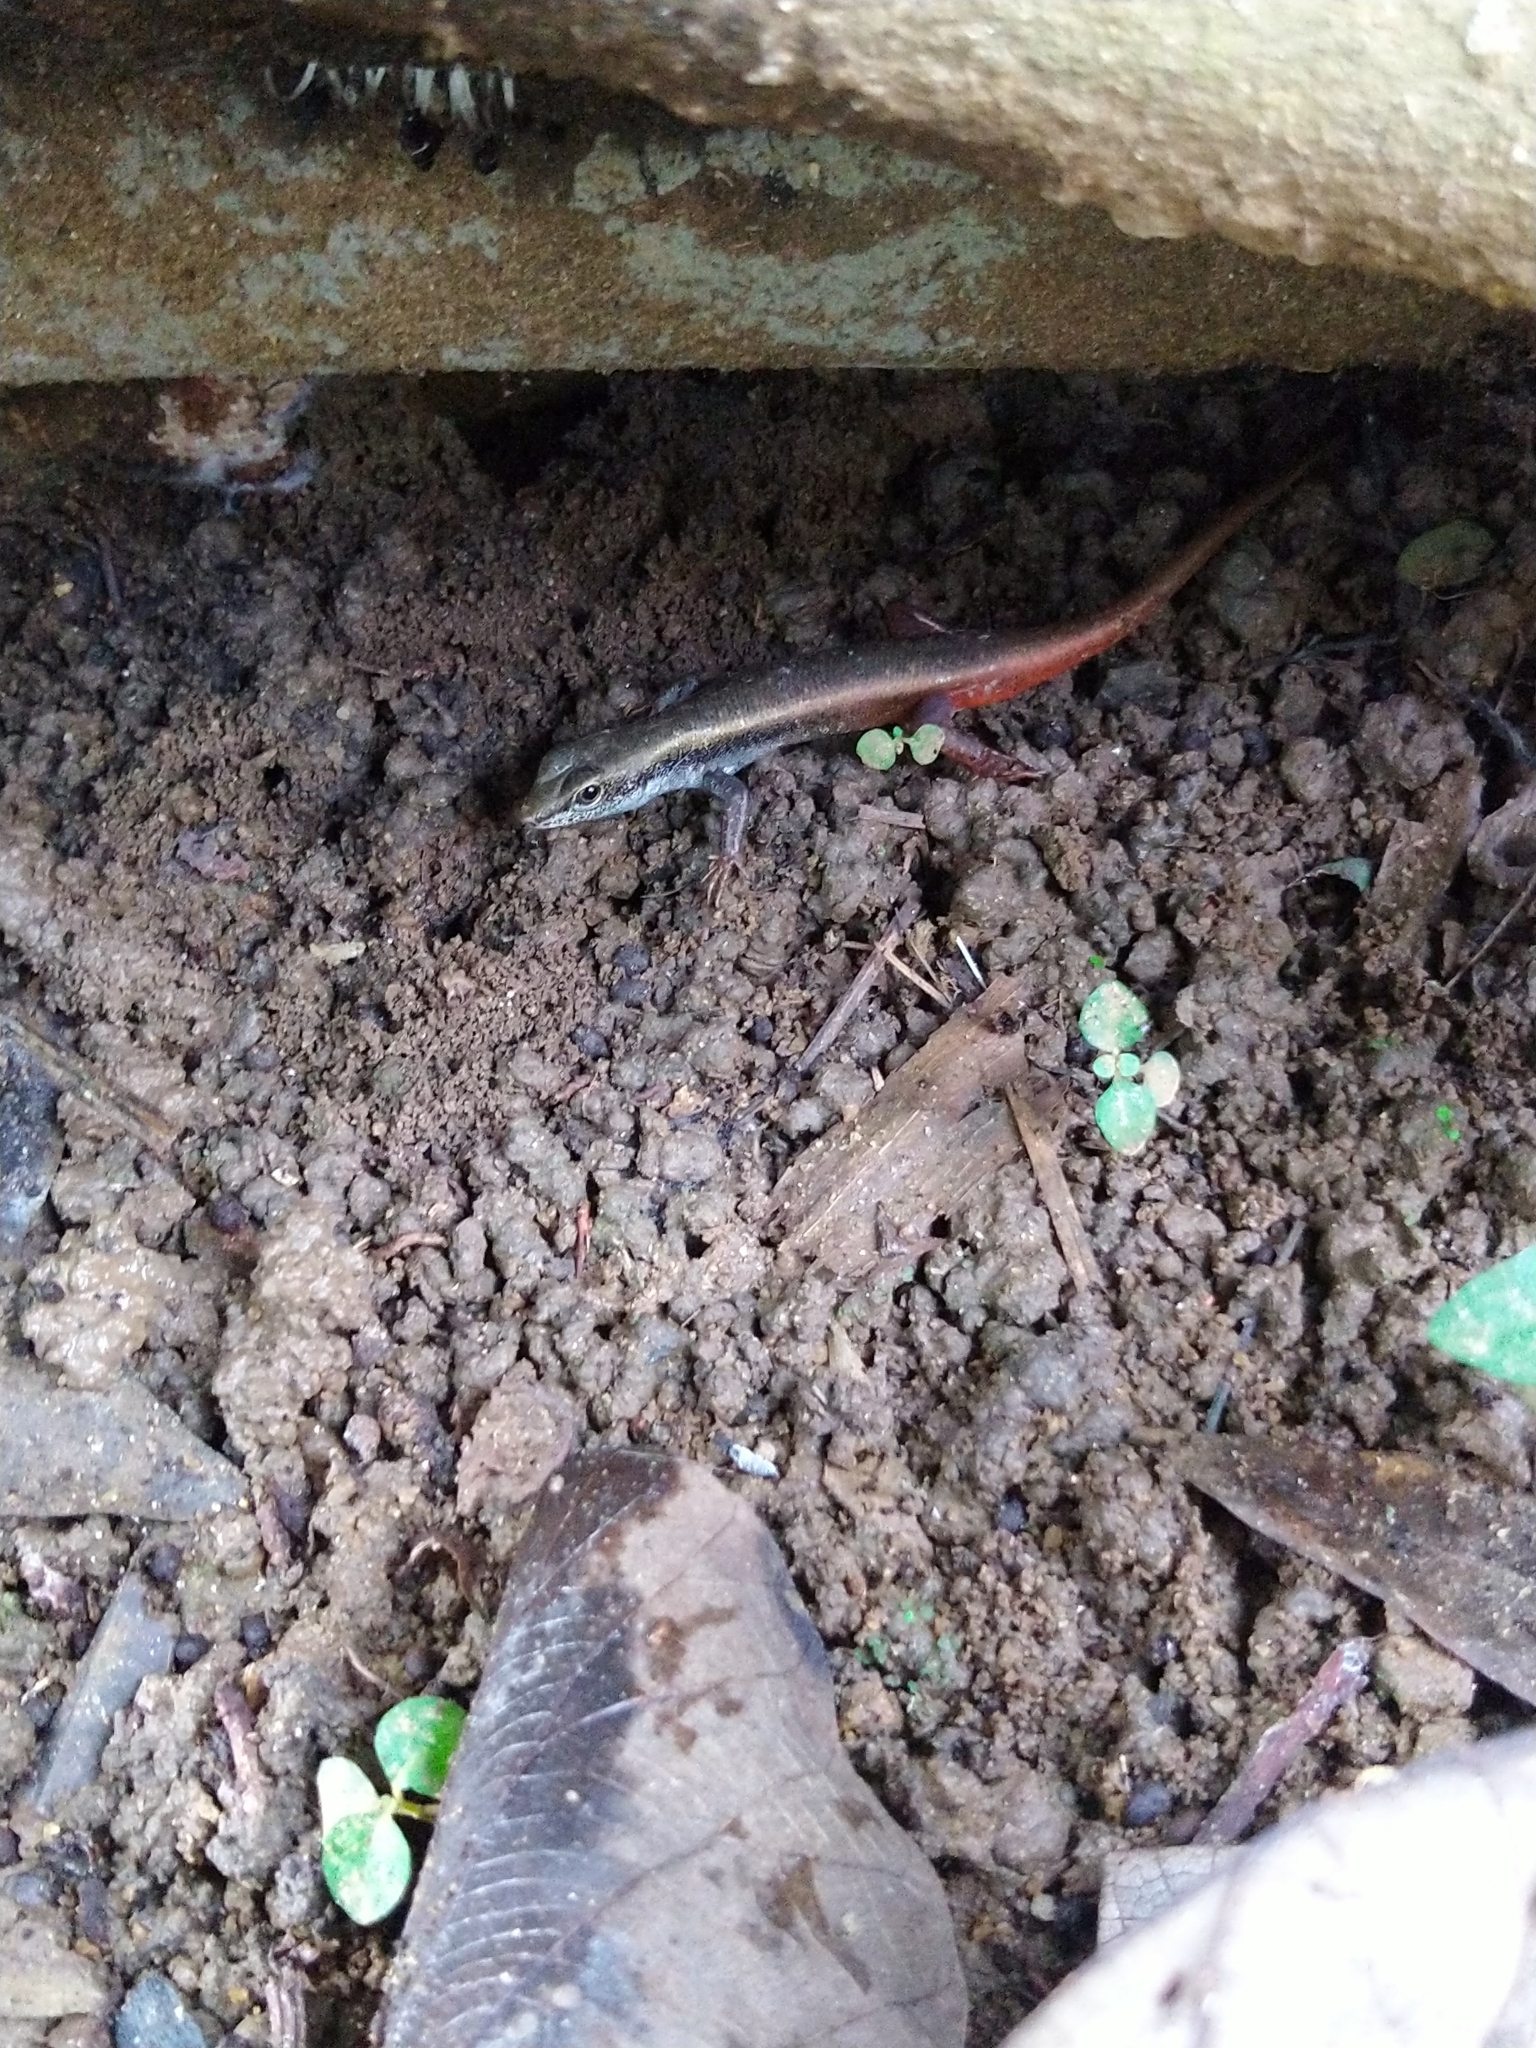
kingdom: Animalia
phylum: Chordata
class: Squamata
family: Scincidae
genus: Sphenomorphus
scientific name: Sphenomorphus dussumieri
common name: Dussumier's forest skink
